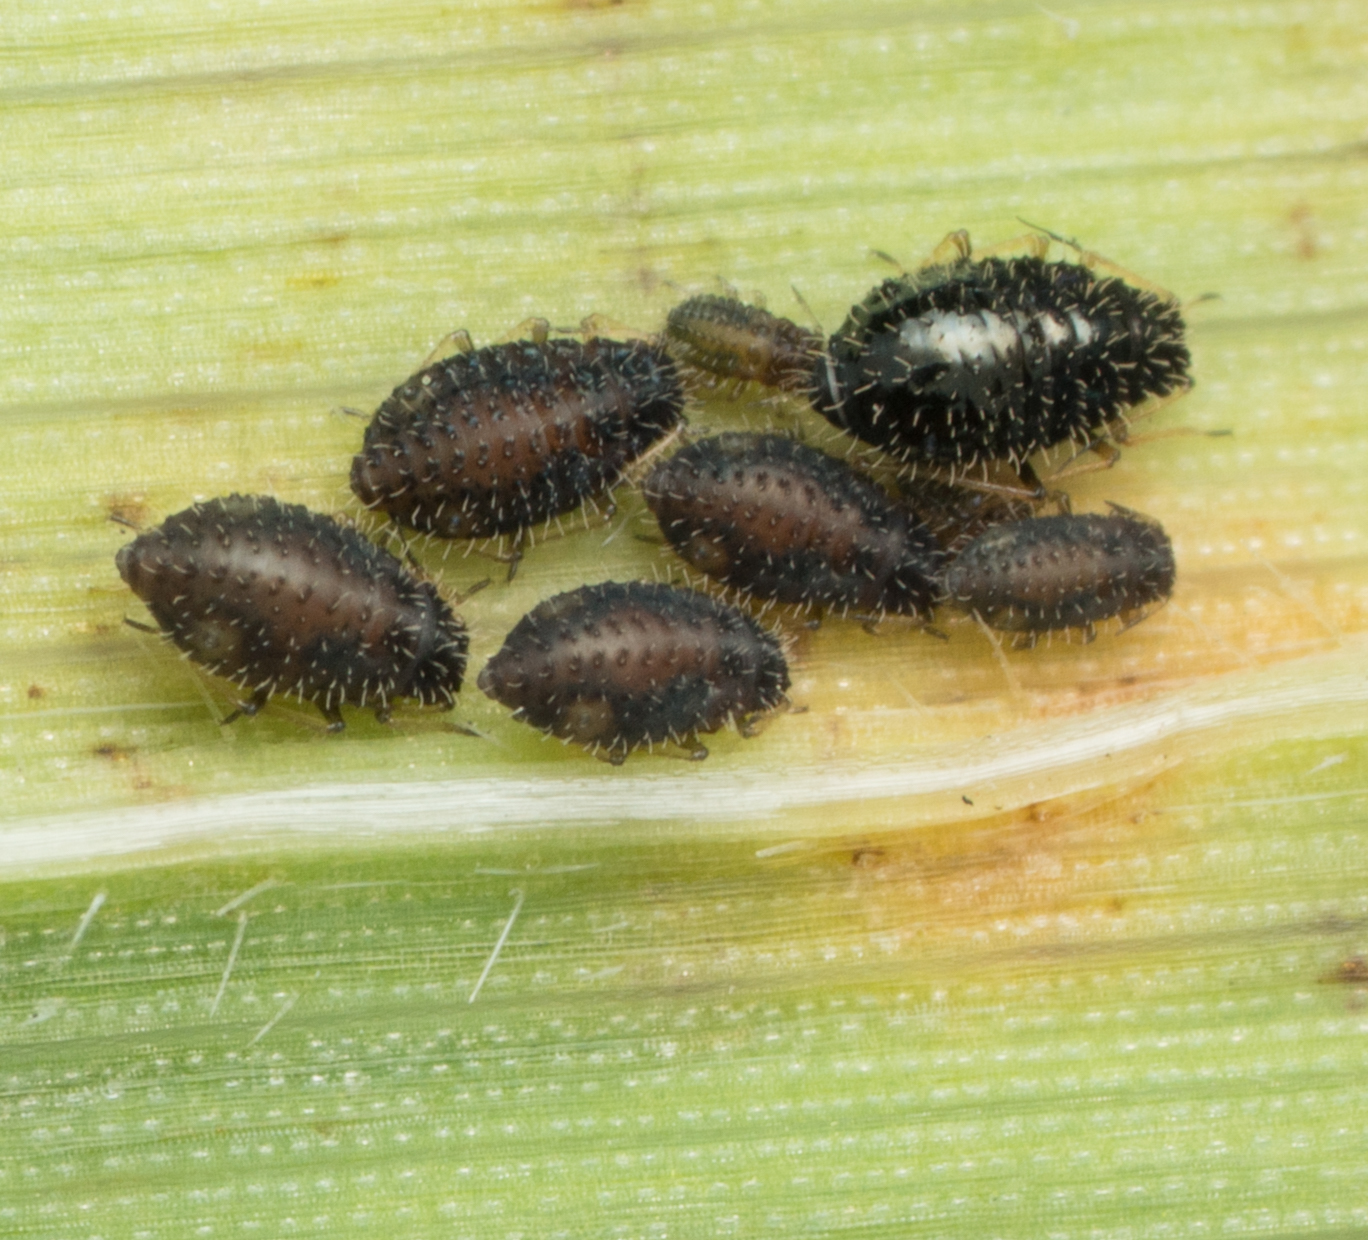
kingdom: Animalia
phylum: Arthropoda
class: Insecta
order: Hemiptera
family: Aphididae
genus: Sipha
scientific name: Sipha maydis
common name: Aphid
